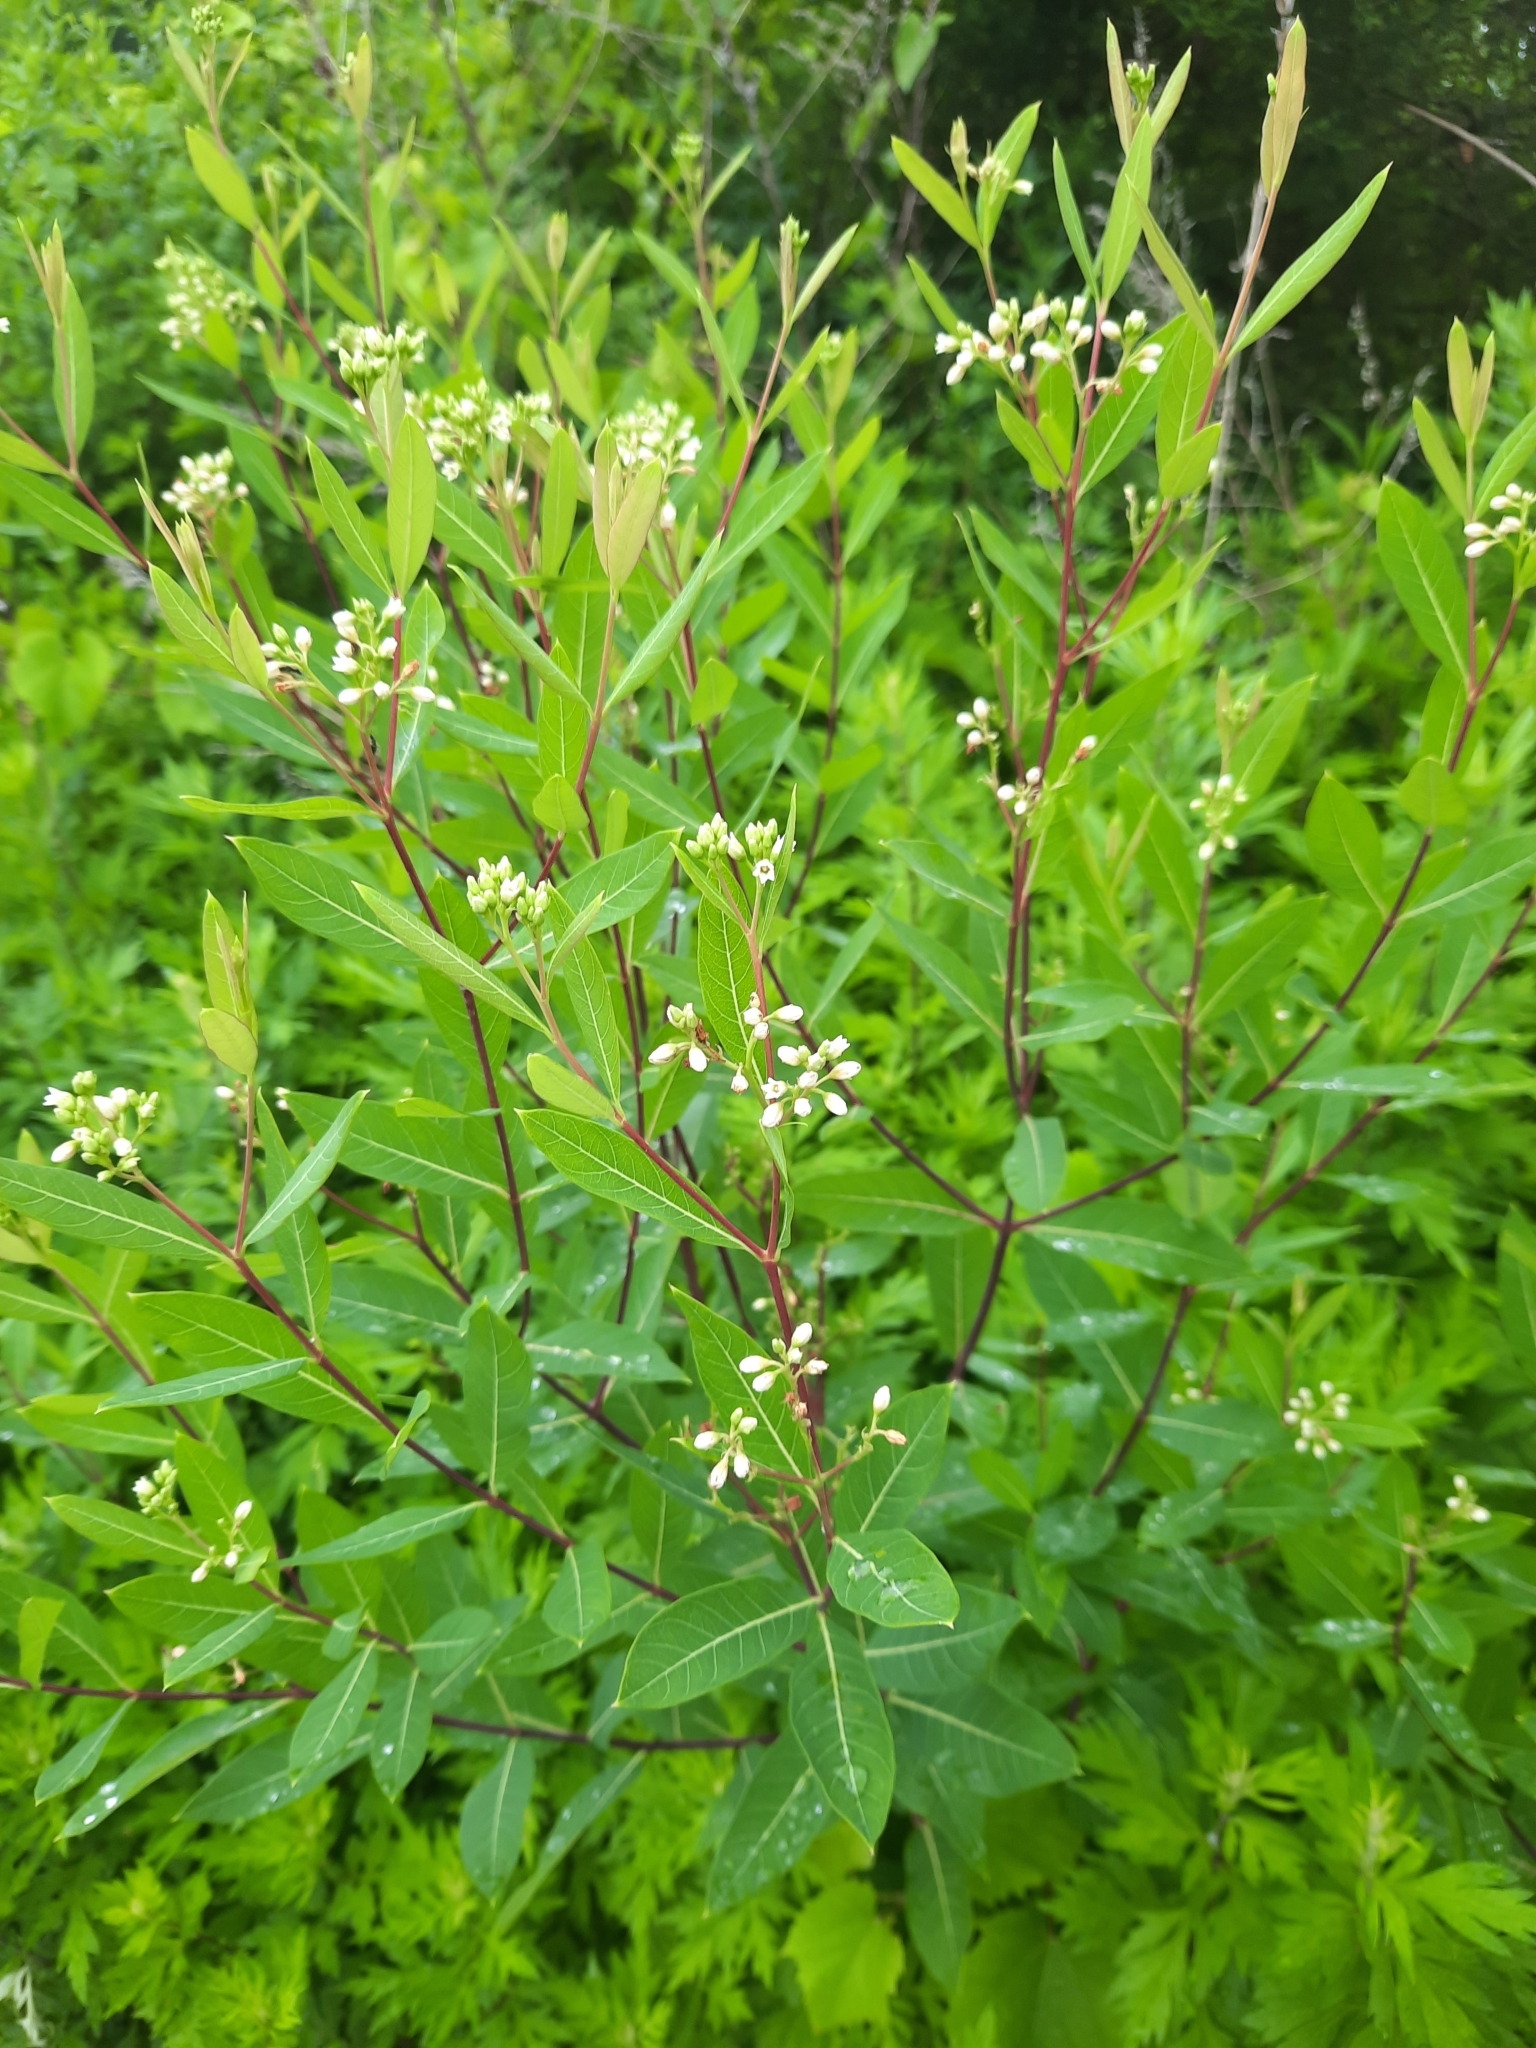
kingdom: Plantae
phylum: Tracheophyta
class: Magnoliopsida
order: Gentianales
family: Apocynaceae
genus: Apocynum
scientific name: Apocynum cannabinum
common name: Hemp dogbane
